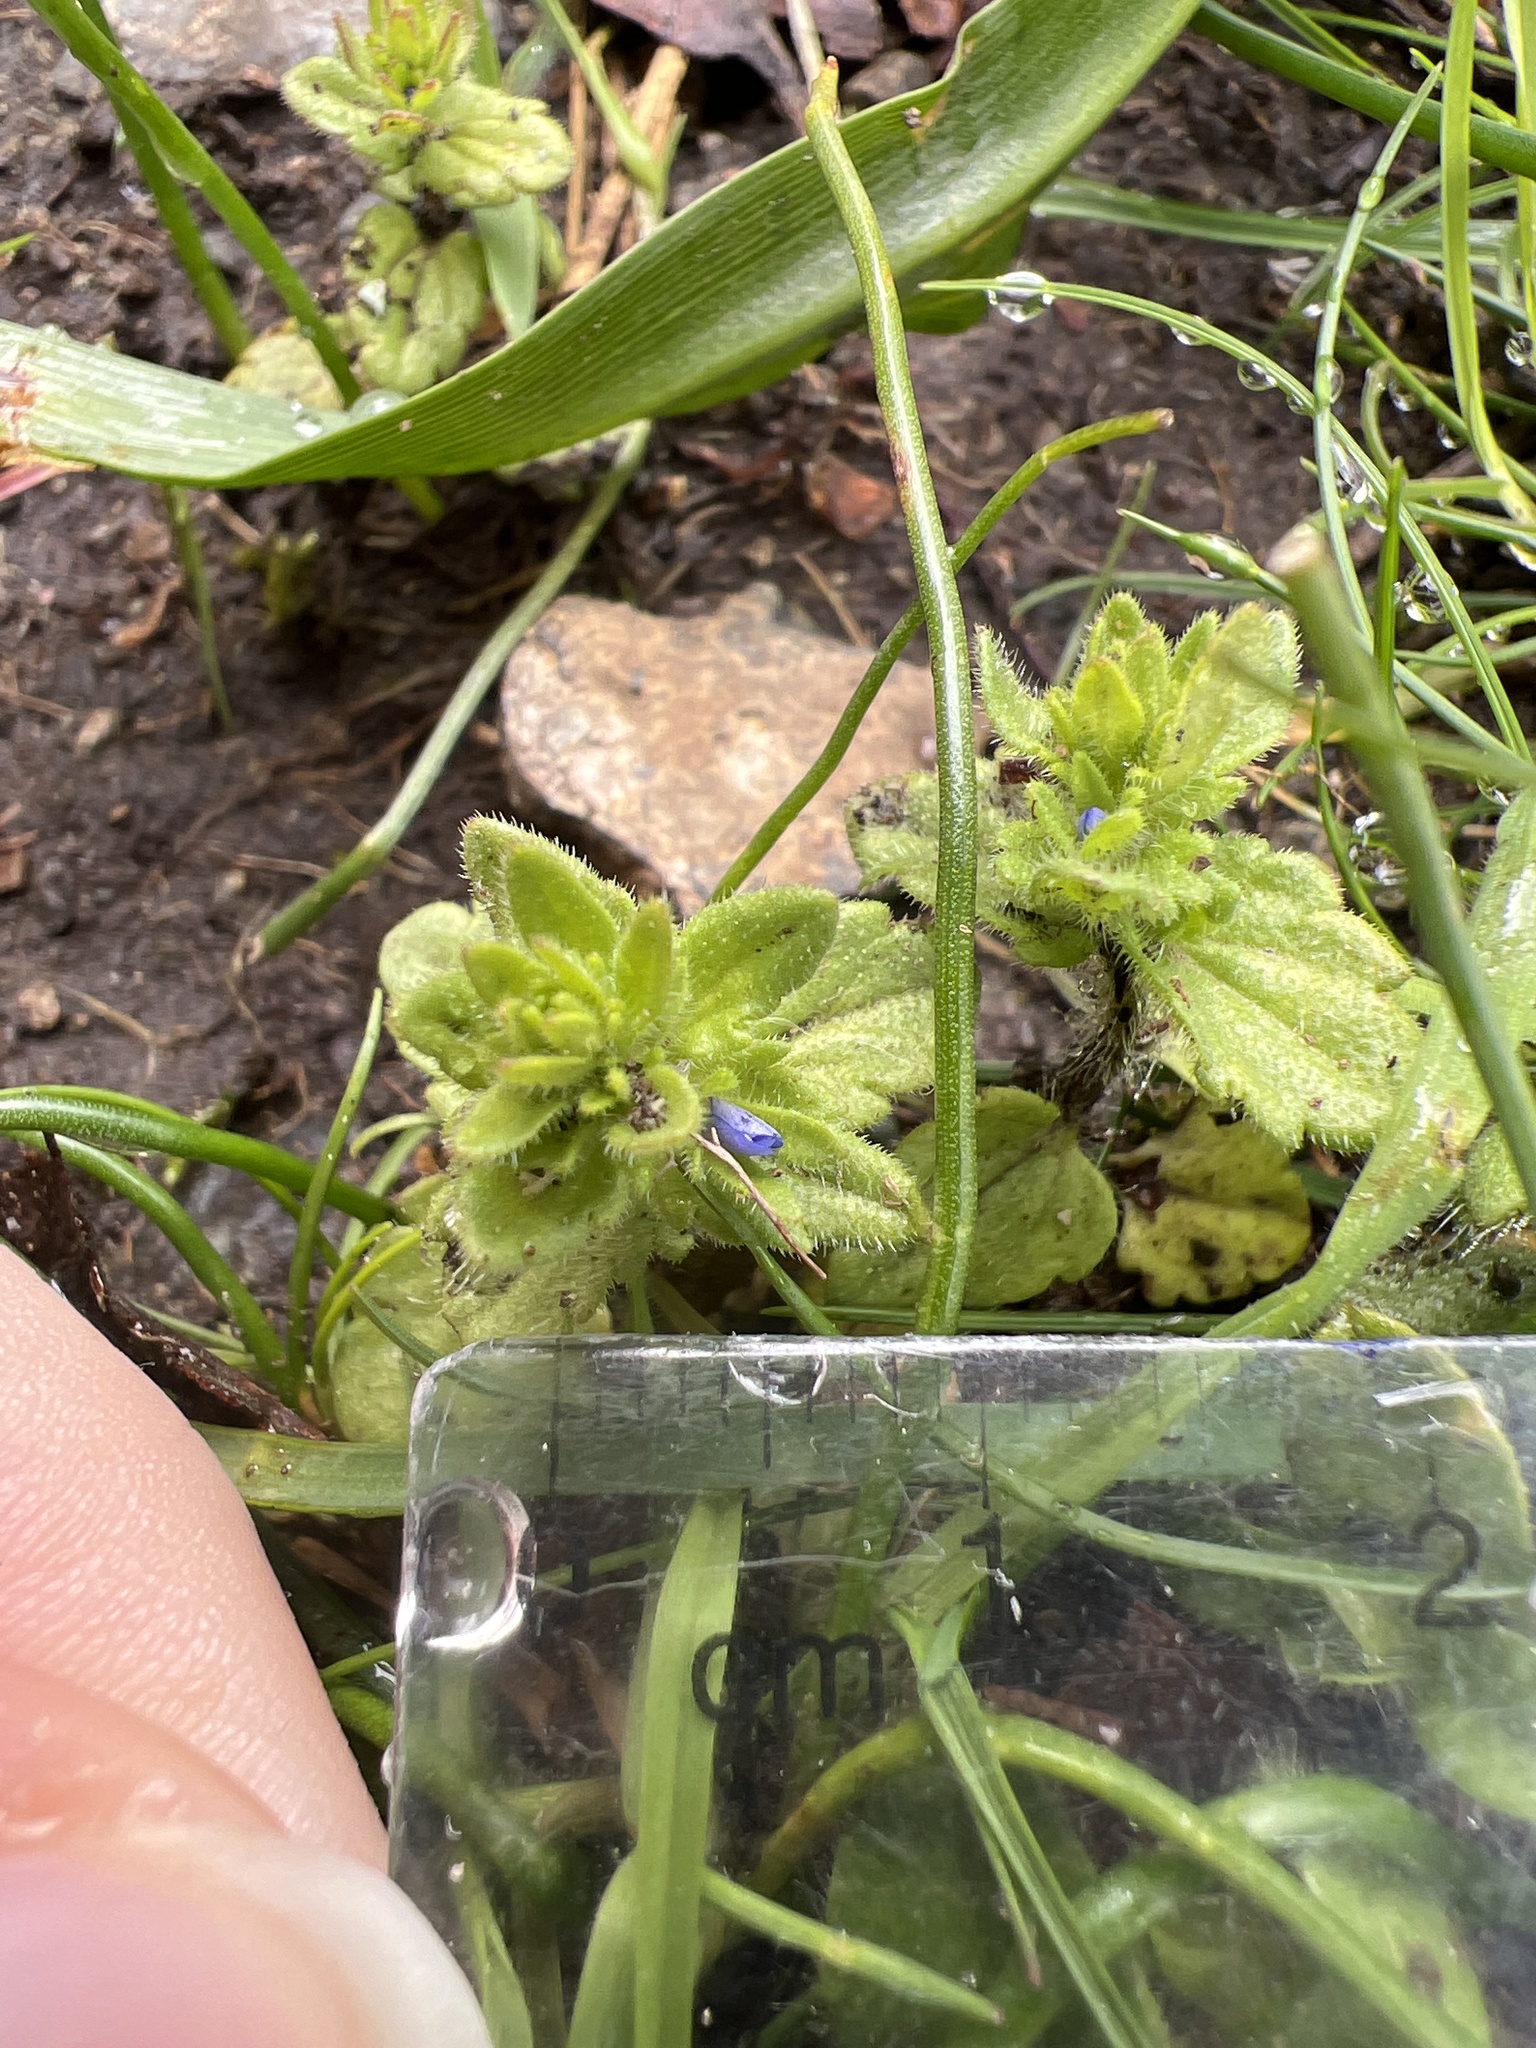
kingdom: Plantae
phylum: Tracheophyta
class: Magnoliopsida
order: Lamiales
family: Plantaginaceae
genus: Veronica
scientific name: Veronica arvensis
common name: Corn speedwell
